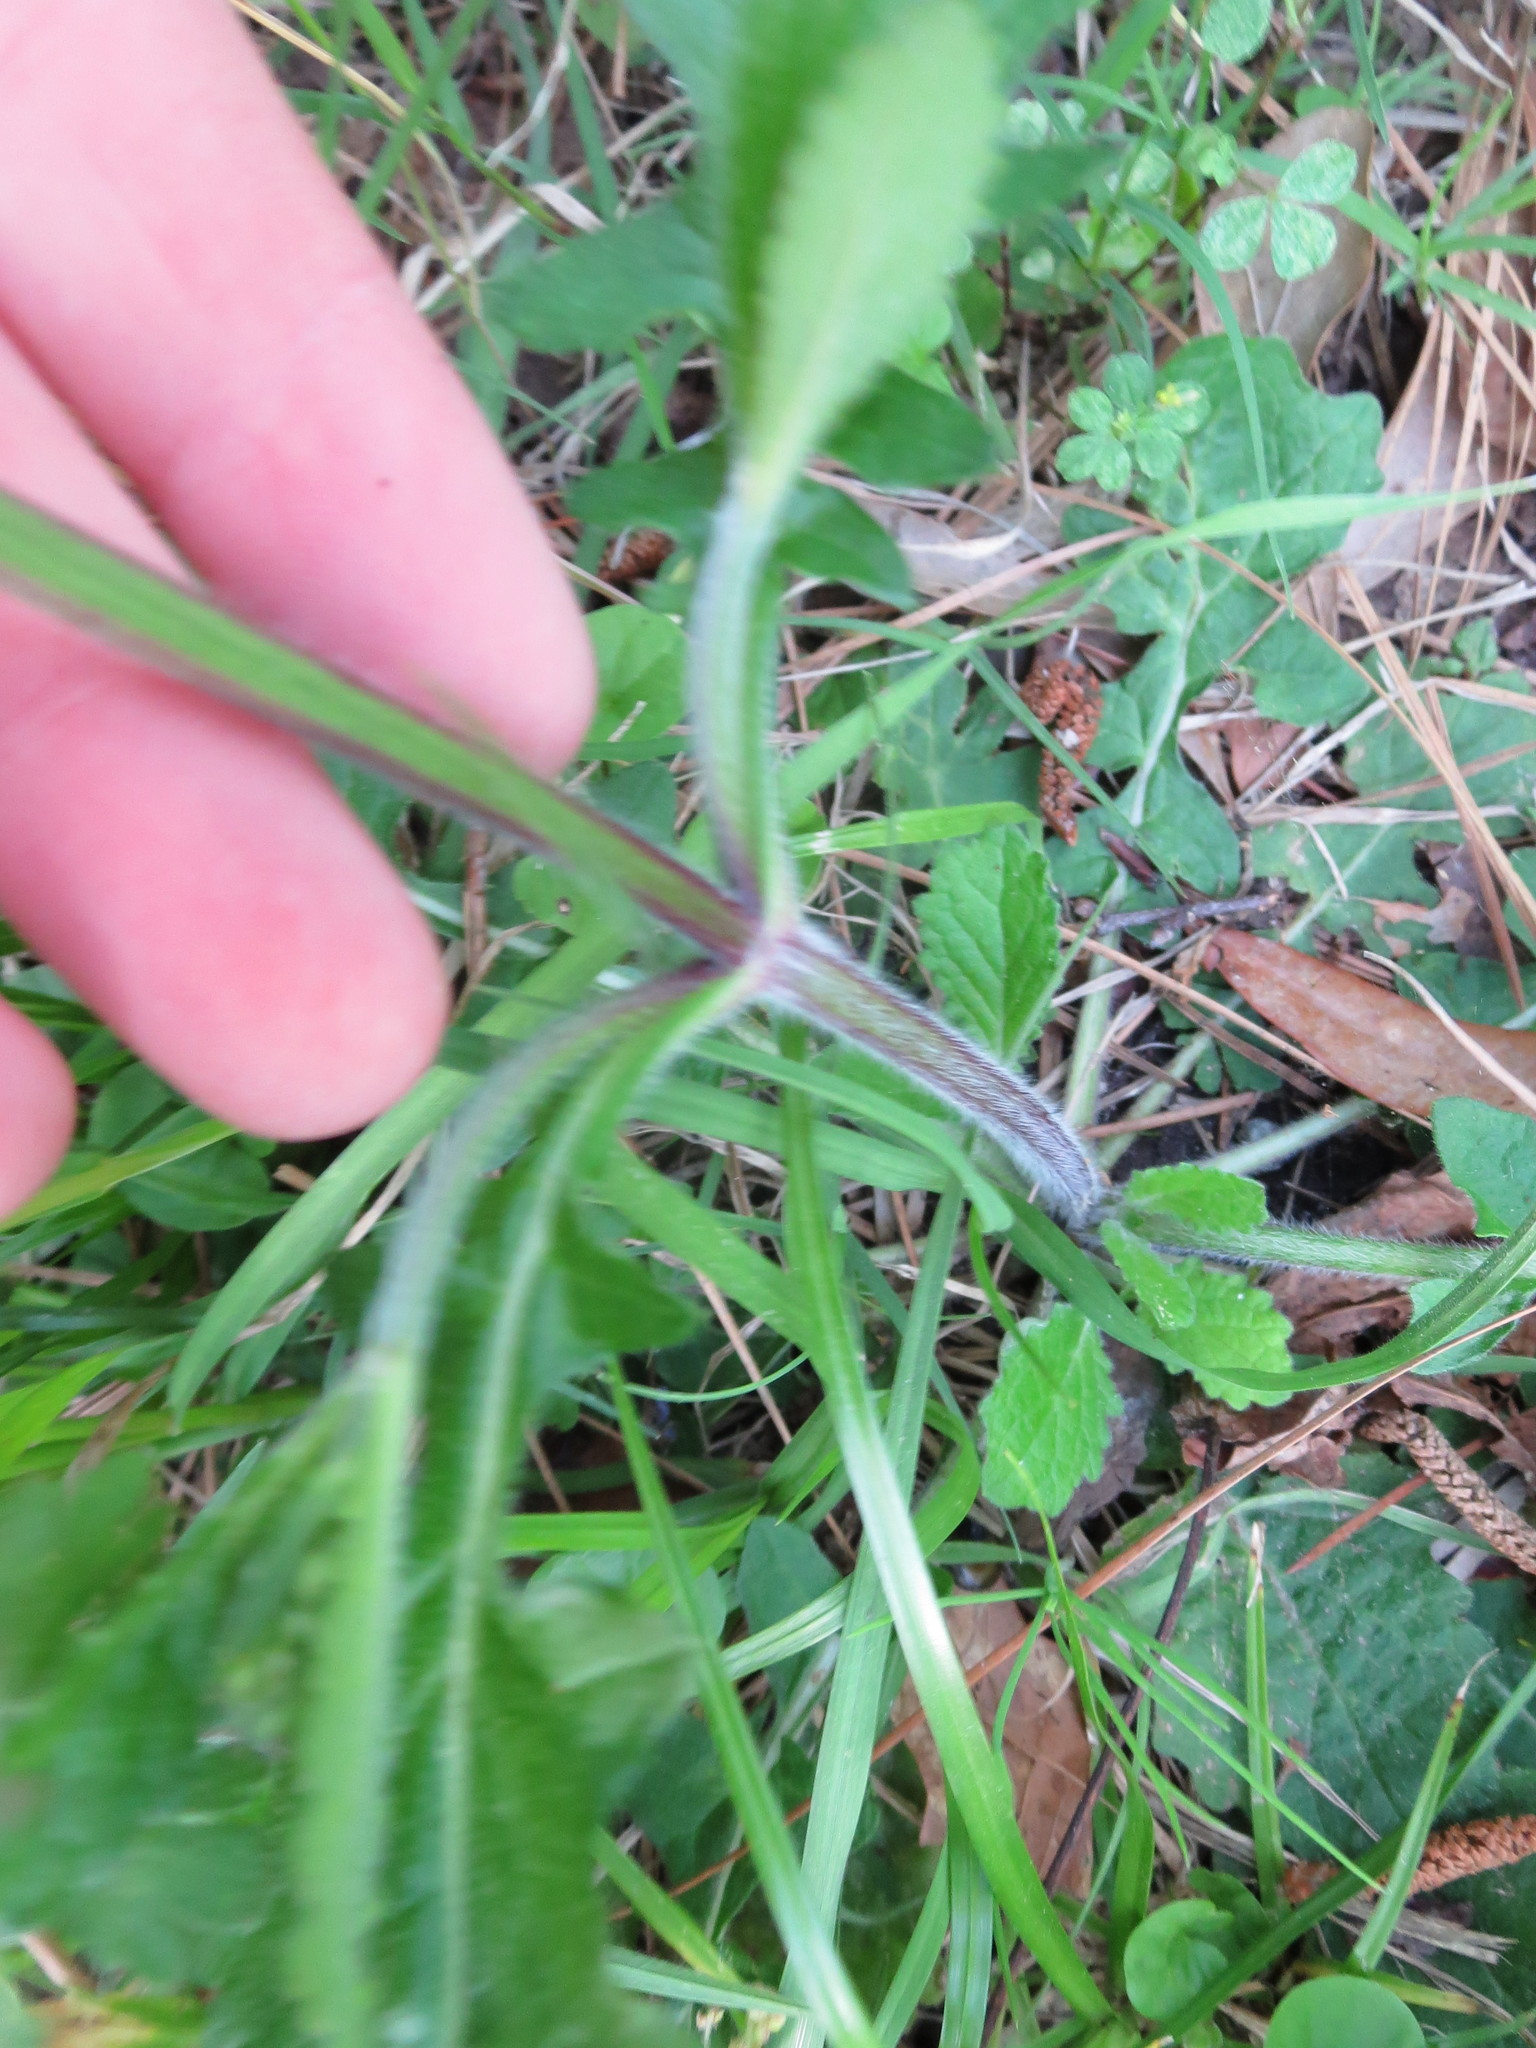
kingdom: Plantae
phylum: Tracheophyta
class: Magnoliopsida
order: Lamiales
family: Lamiaceae
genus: Salvia
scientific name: Salvia lyrata
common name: Cancerweed
